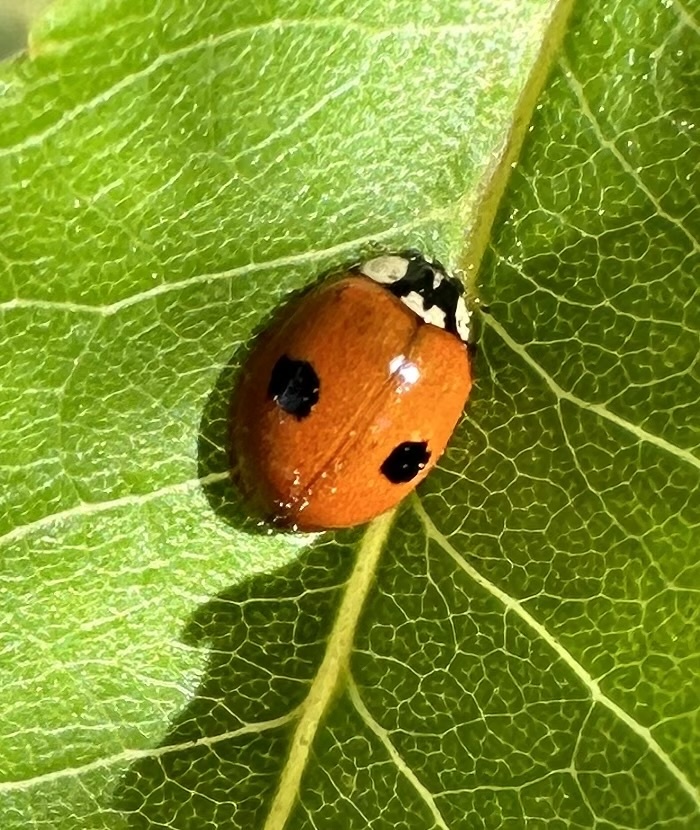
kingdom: Animalia
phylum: Arthropoda
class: Insecta
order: Coleoptera
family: Coccinellidae
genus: Adalia
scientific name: Adalia bipunctata
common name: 2-spot ladybird
